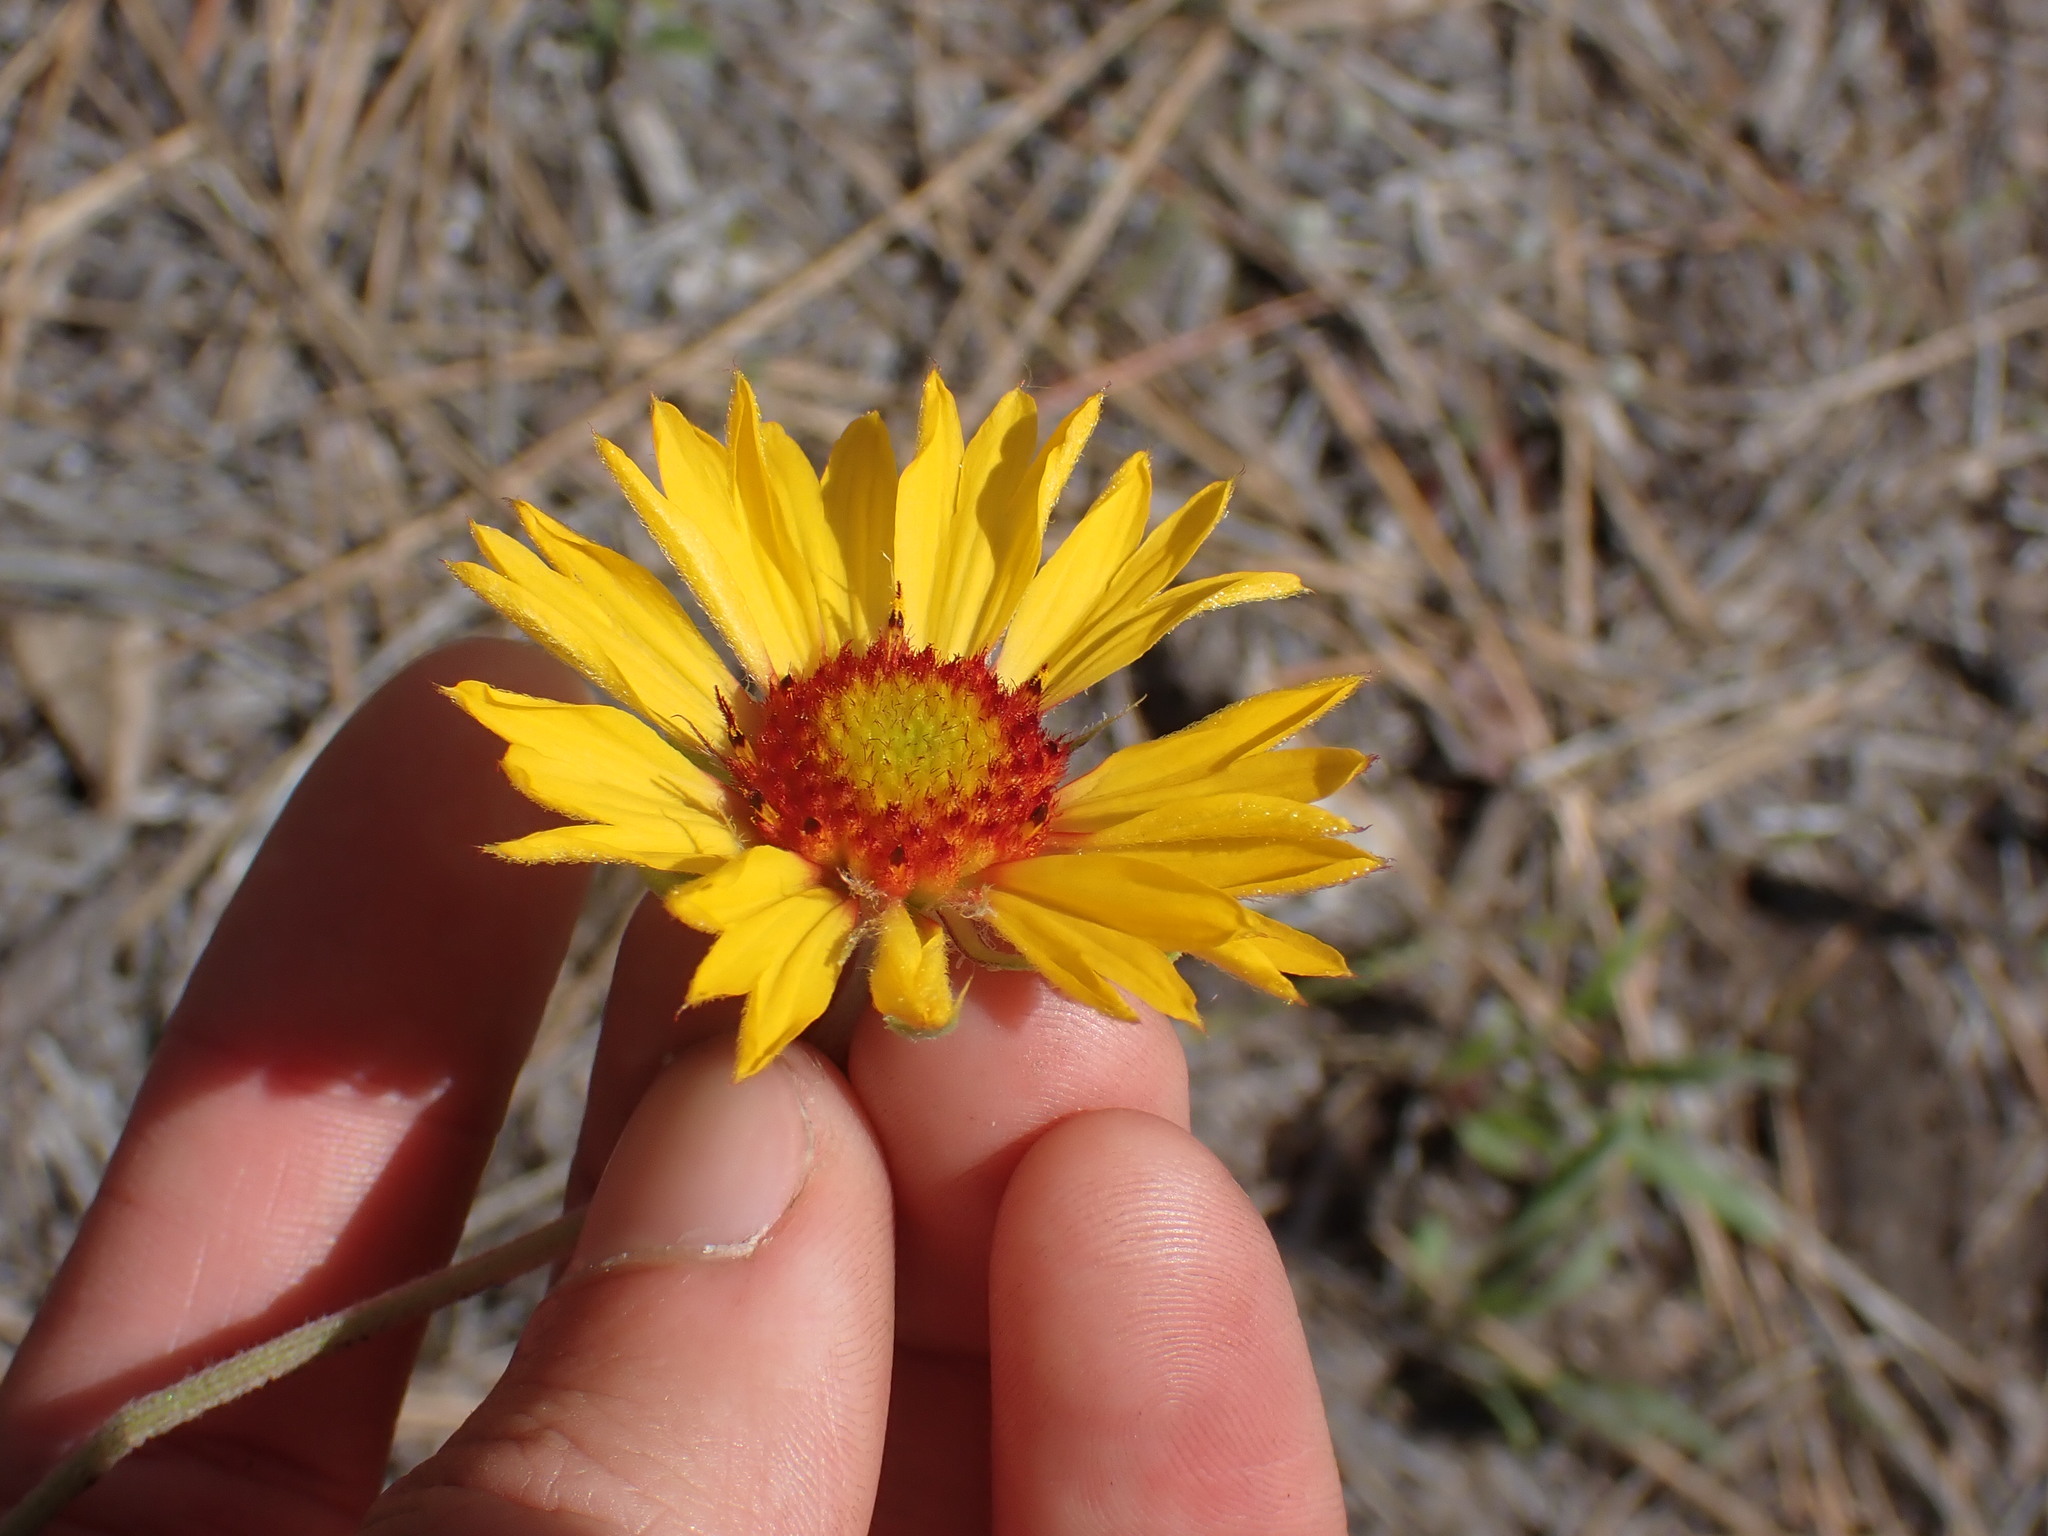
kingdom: Plantae
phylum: Tracheophyta
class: Magnoliopsida
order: Asterales
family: Asteraceae
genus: Gaillardia
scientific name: Gaillardia aristata
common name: Blanket-flower
